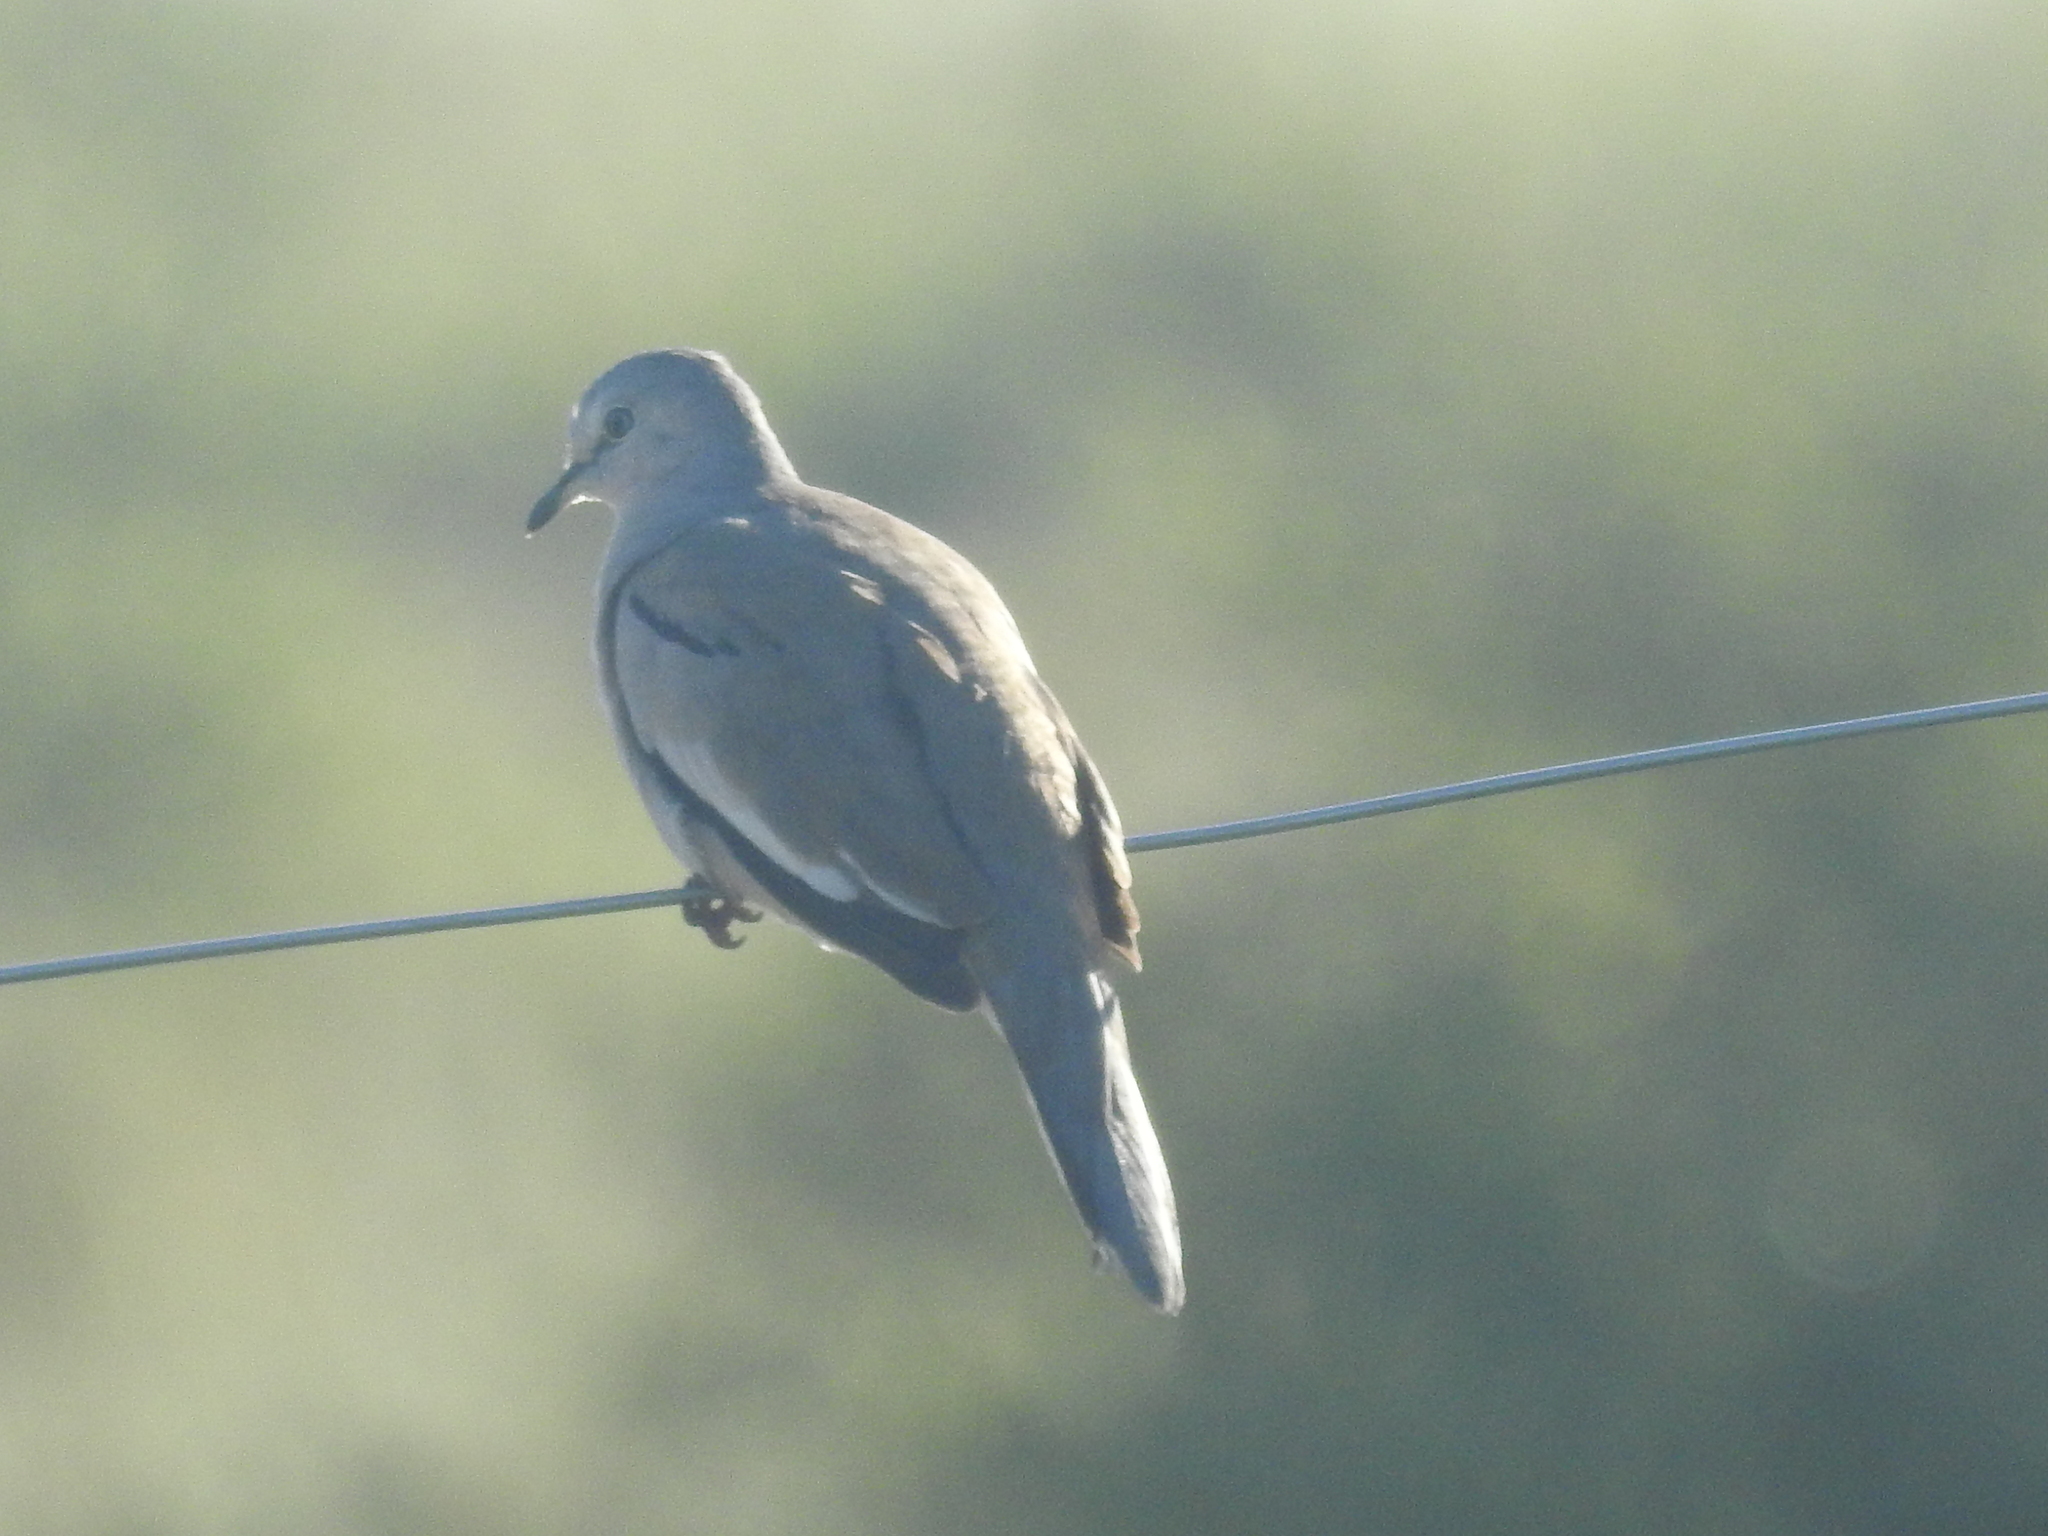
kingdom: Animalia
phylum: Chordata
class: Aves
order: Columbiformes
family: Columbidae
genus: Columbina
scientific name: Columbina picui
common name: Picui ground dove
